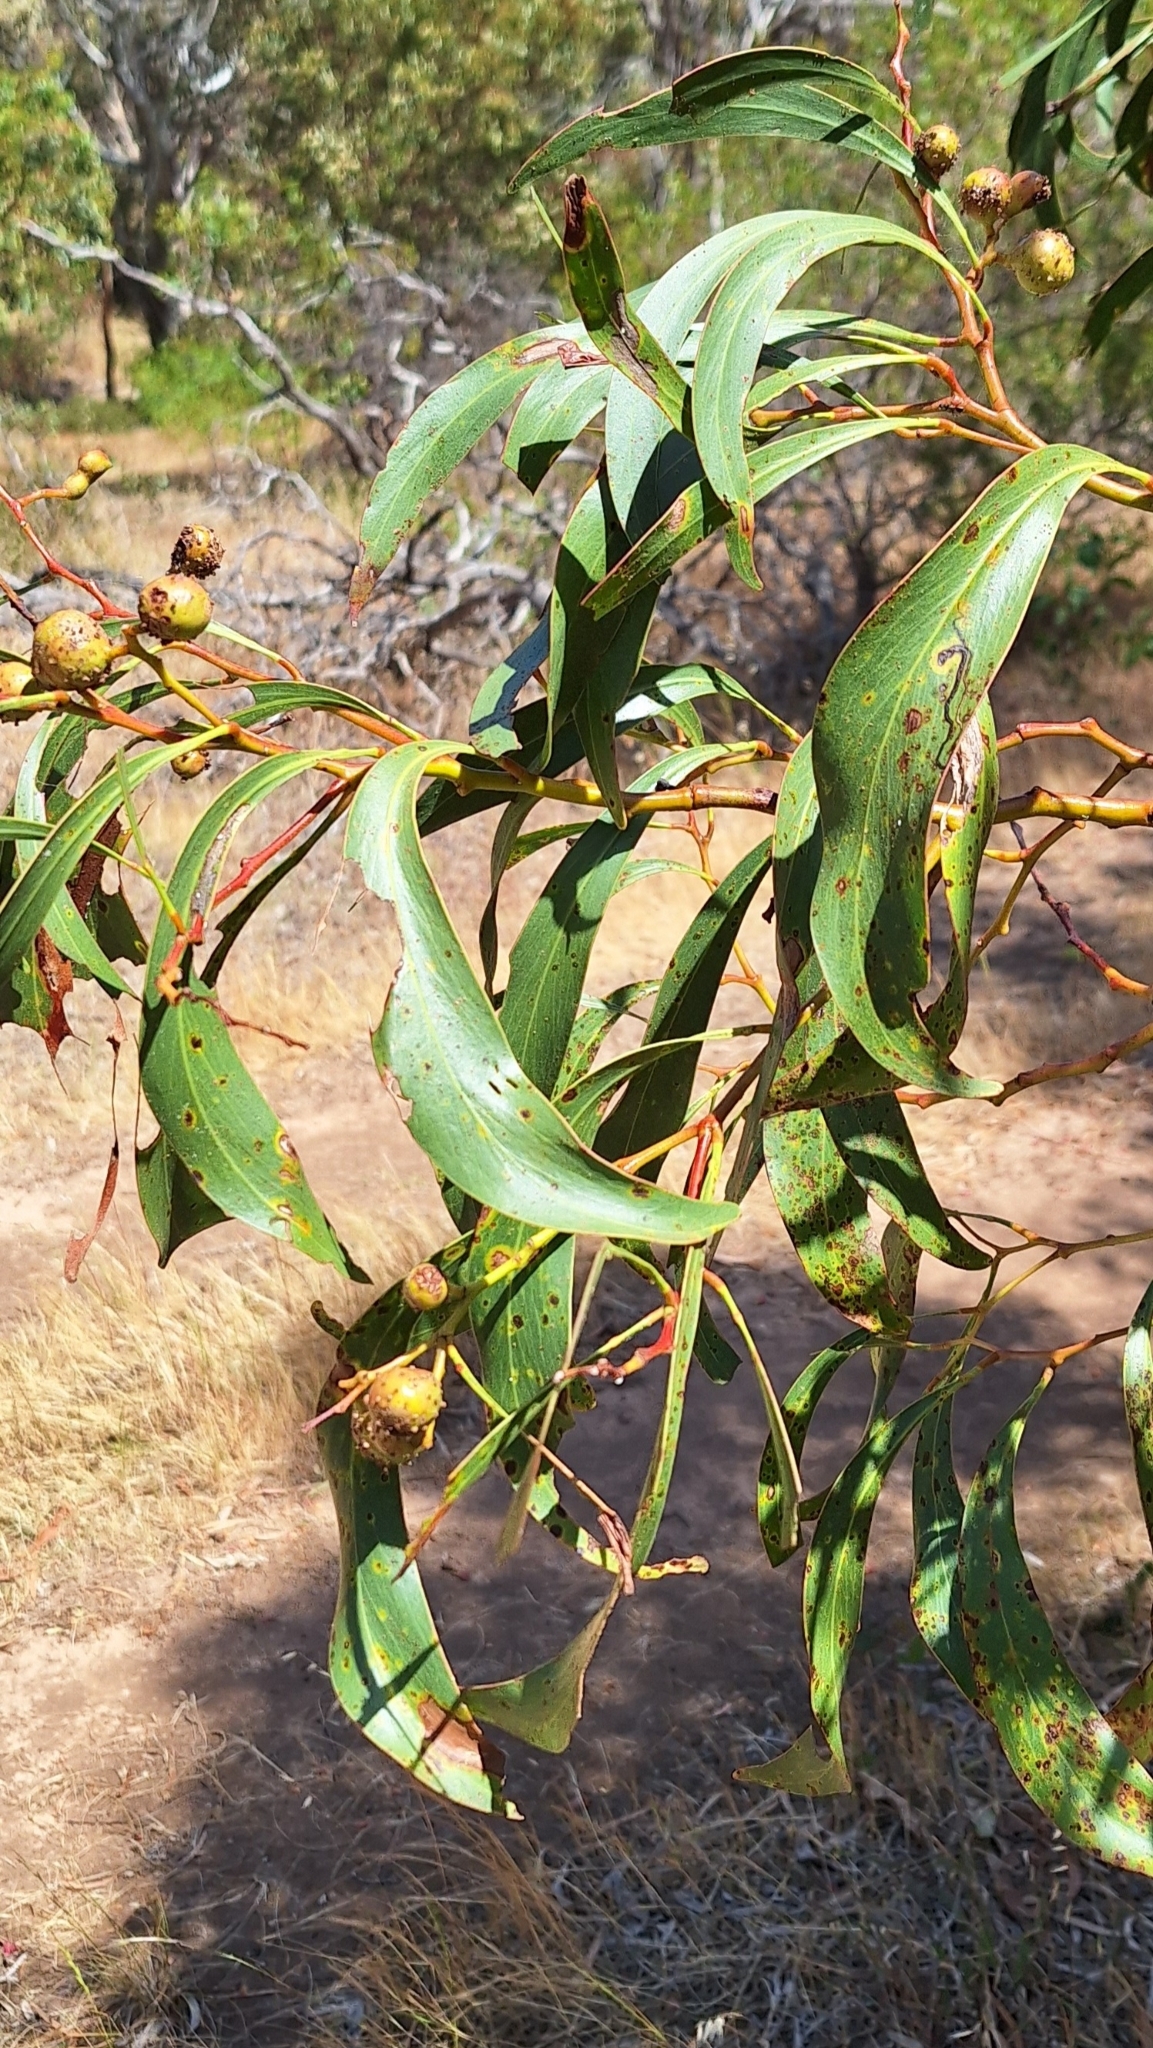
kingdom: Plantae
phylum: Tracheophyta
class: Magnoliopsida
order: Fabales
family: Fabaceae
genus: Acacia
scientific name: Acacia pycnantha
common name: Golden wattle
